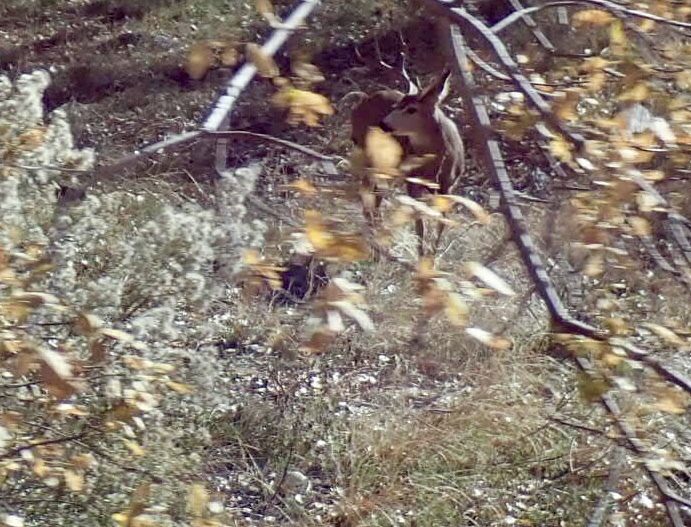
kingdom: Animalia
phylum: Chordata
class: Mammalia
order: Artiodactyla
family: Cervidae
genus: Odocoileus
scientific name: Odocoileus hemionus
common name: Mule deer
